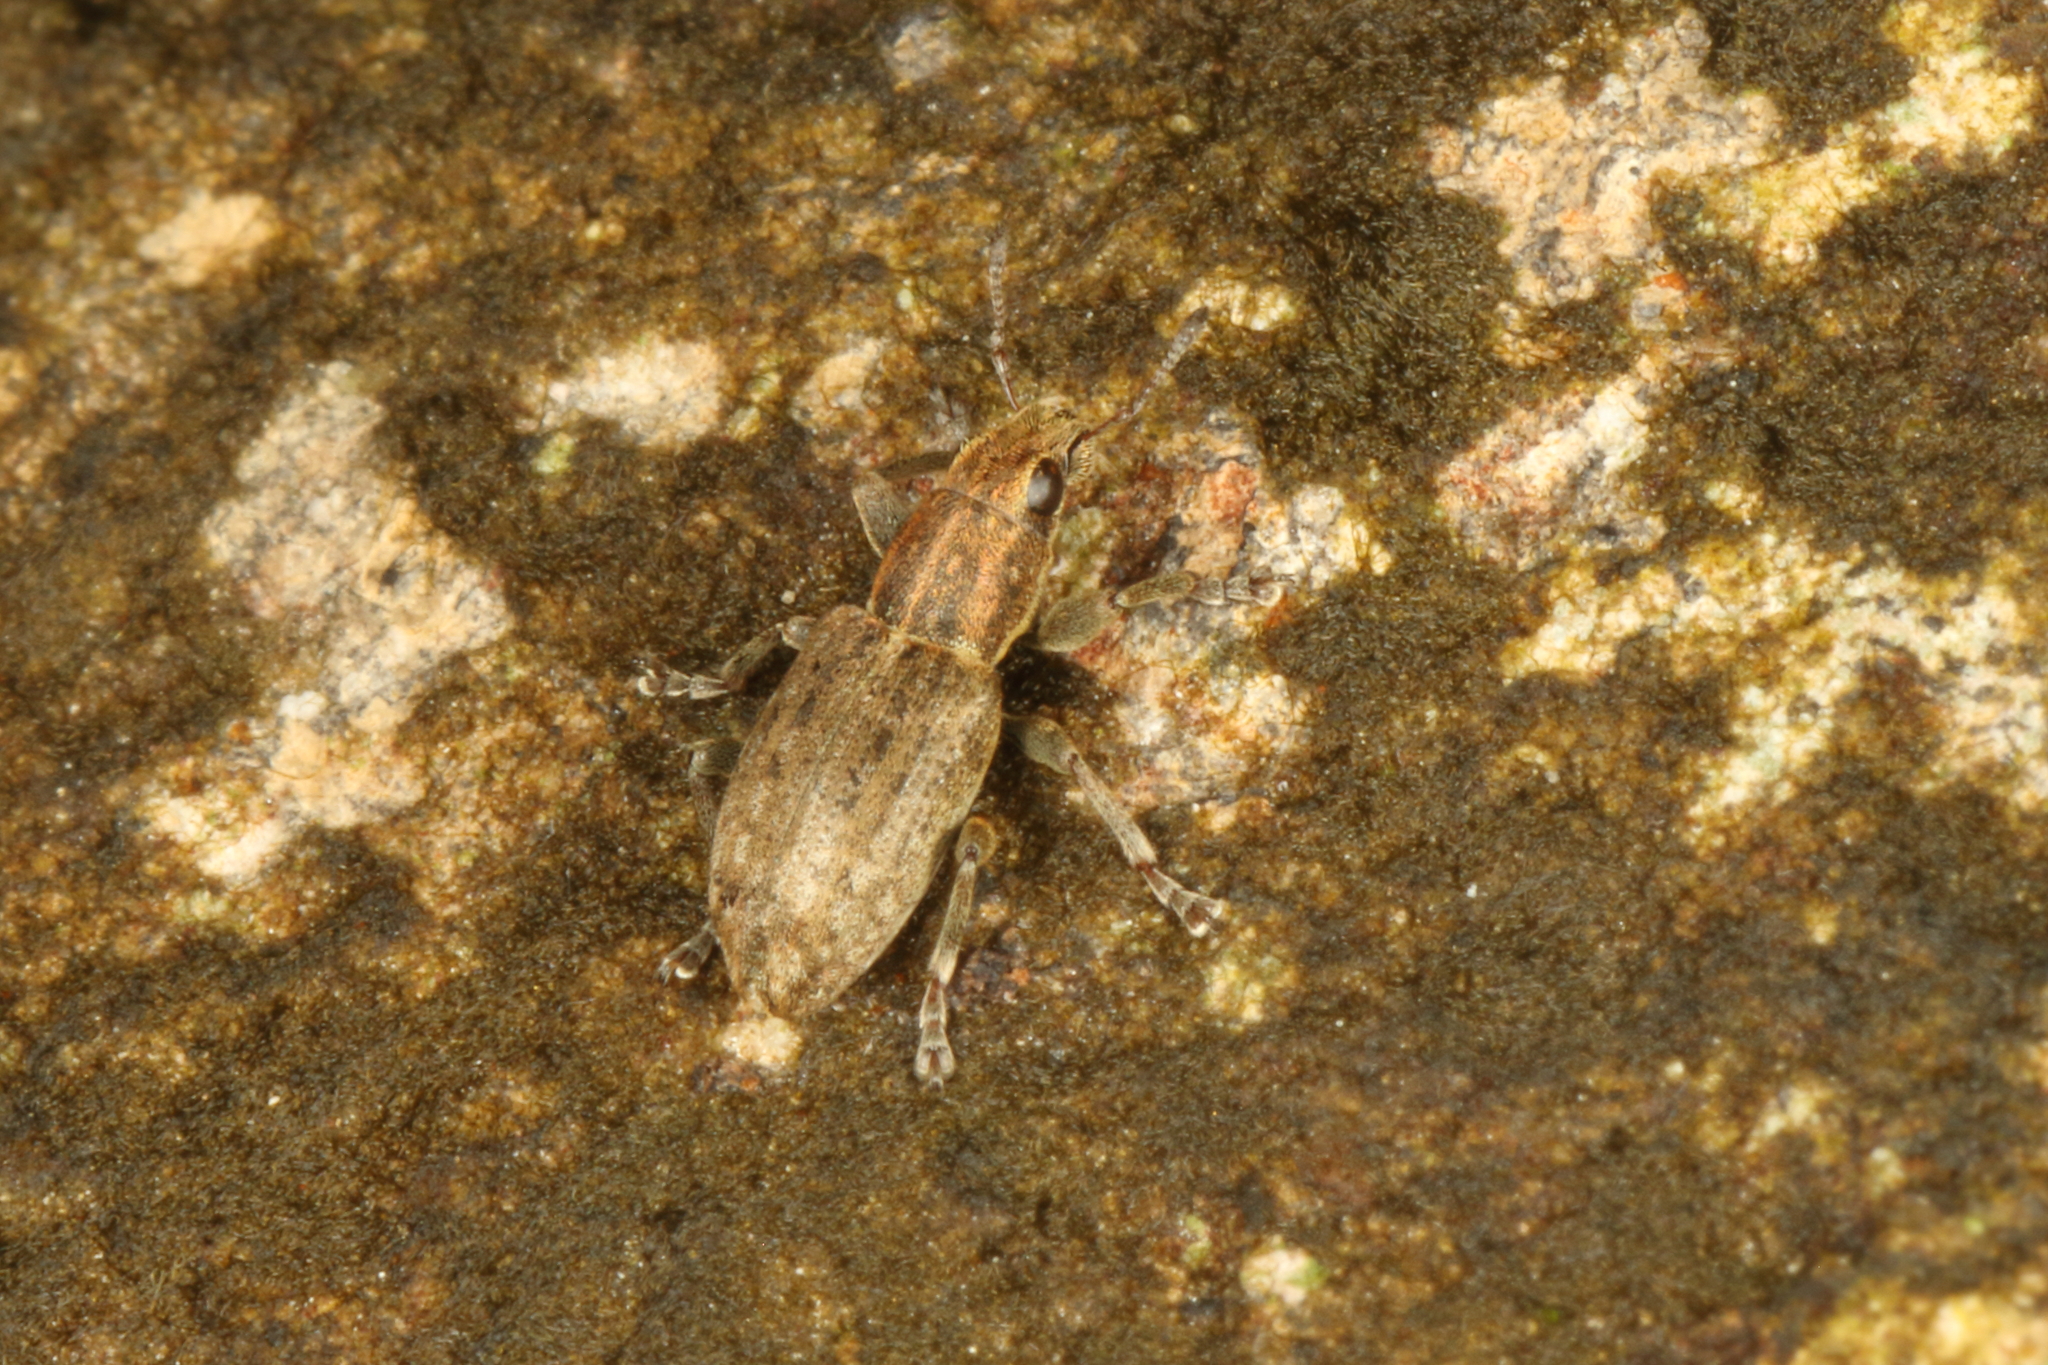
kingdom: Animalia
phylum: Arthropoda
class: Insecta
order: Coleoptera
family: Curculionidae
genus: Sitona
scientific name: Sitona obsoletus
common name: Weevil
